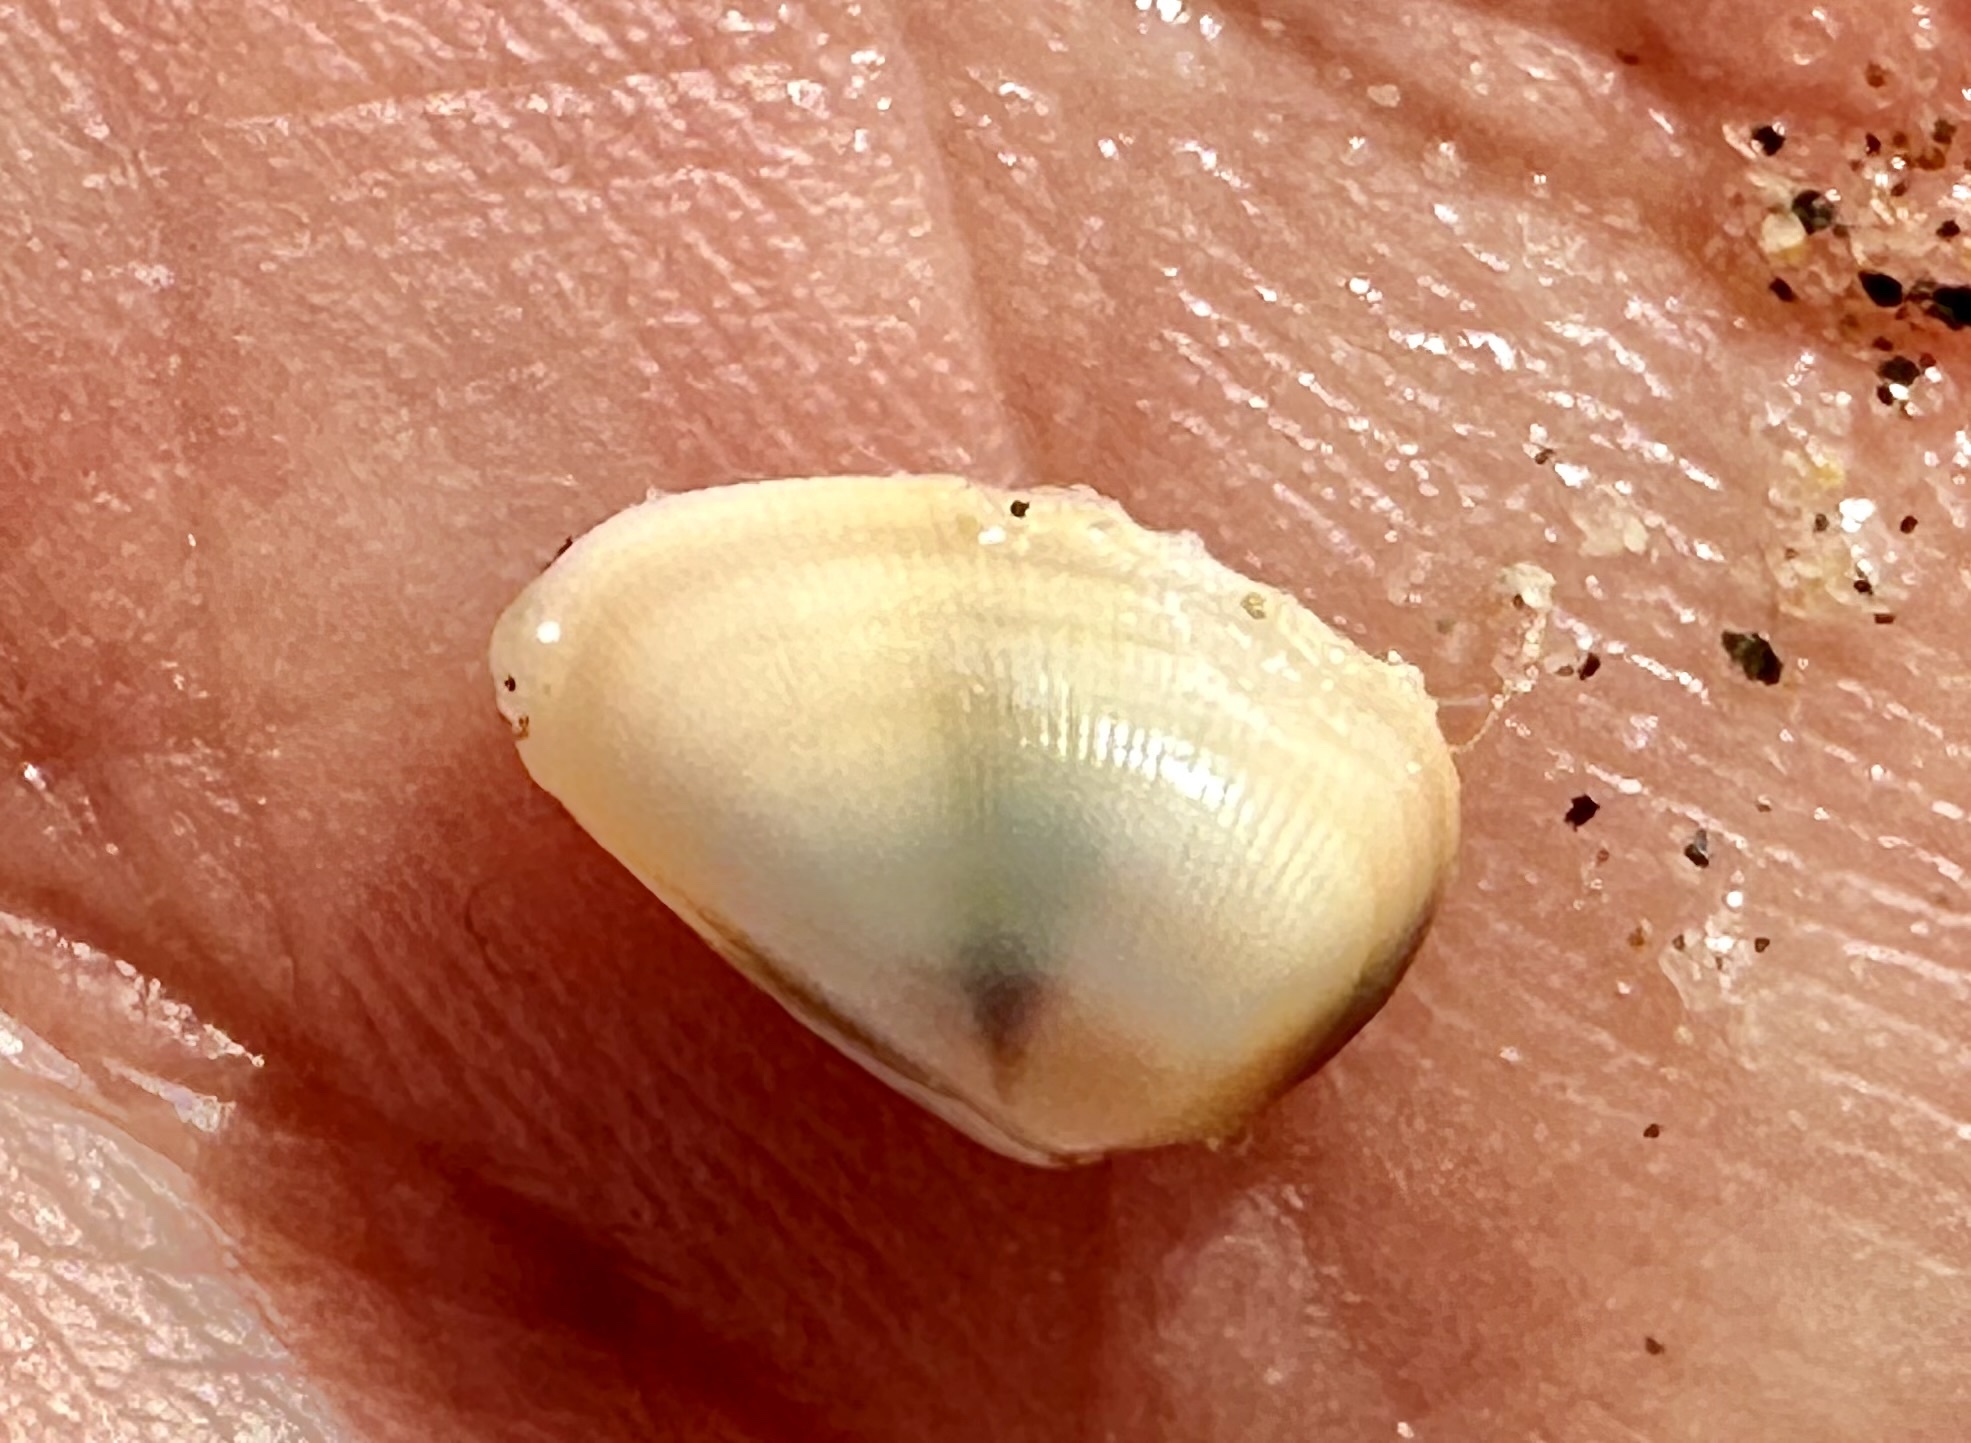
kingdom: Animalia
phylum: Mollusca
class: Bivalvia
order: Cardiida
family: Donacidae
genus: Donax
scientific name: Donax gouldii
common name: Gould beanclam
